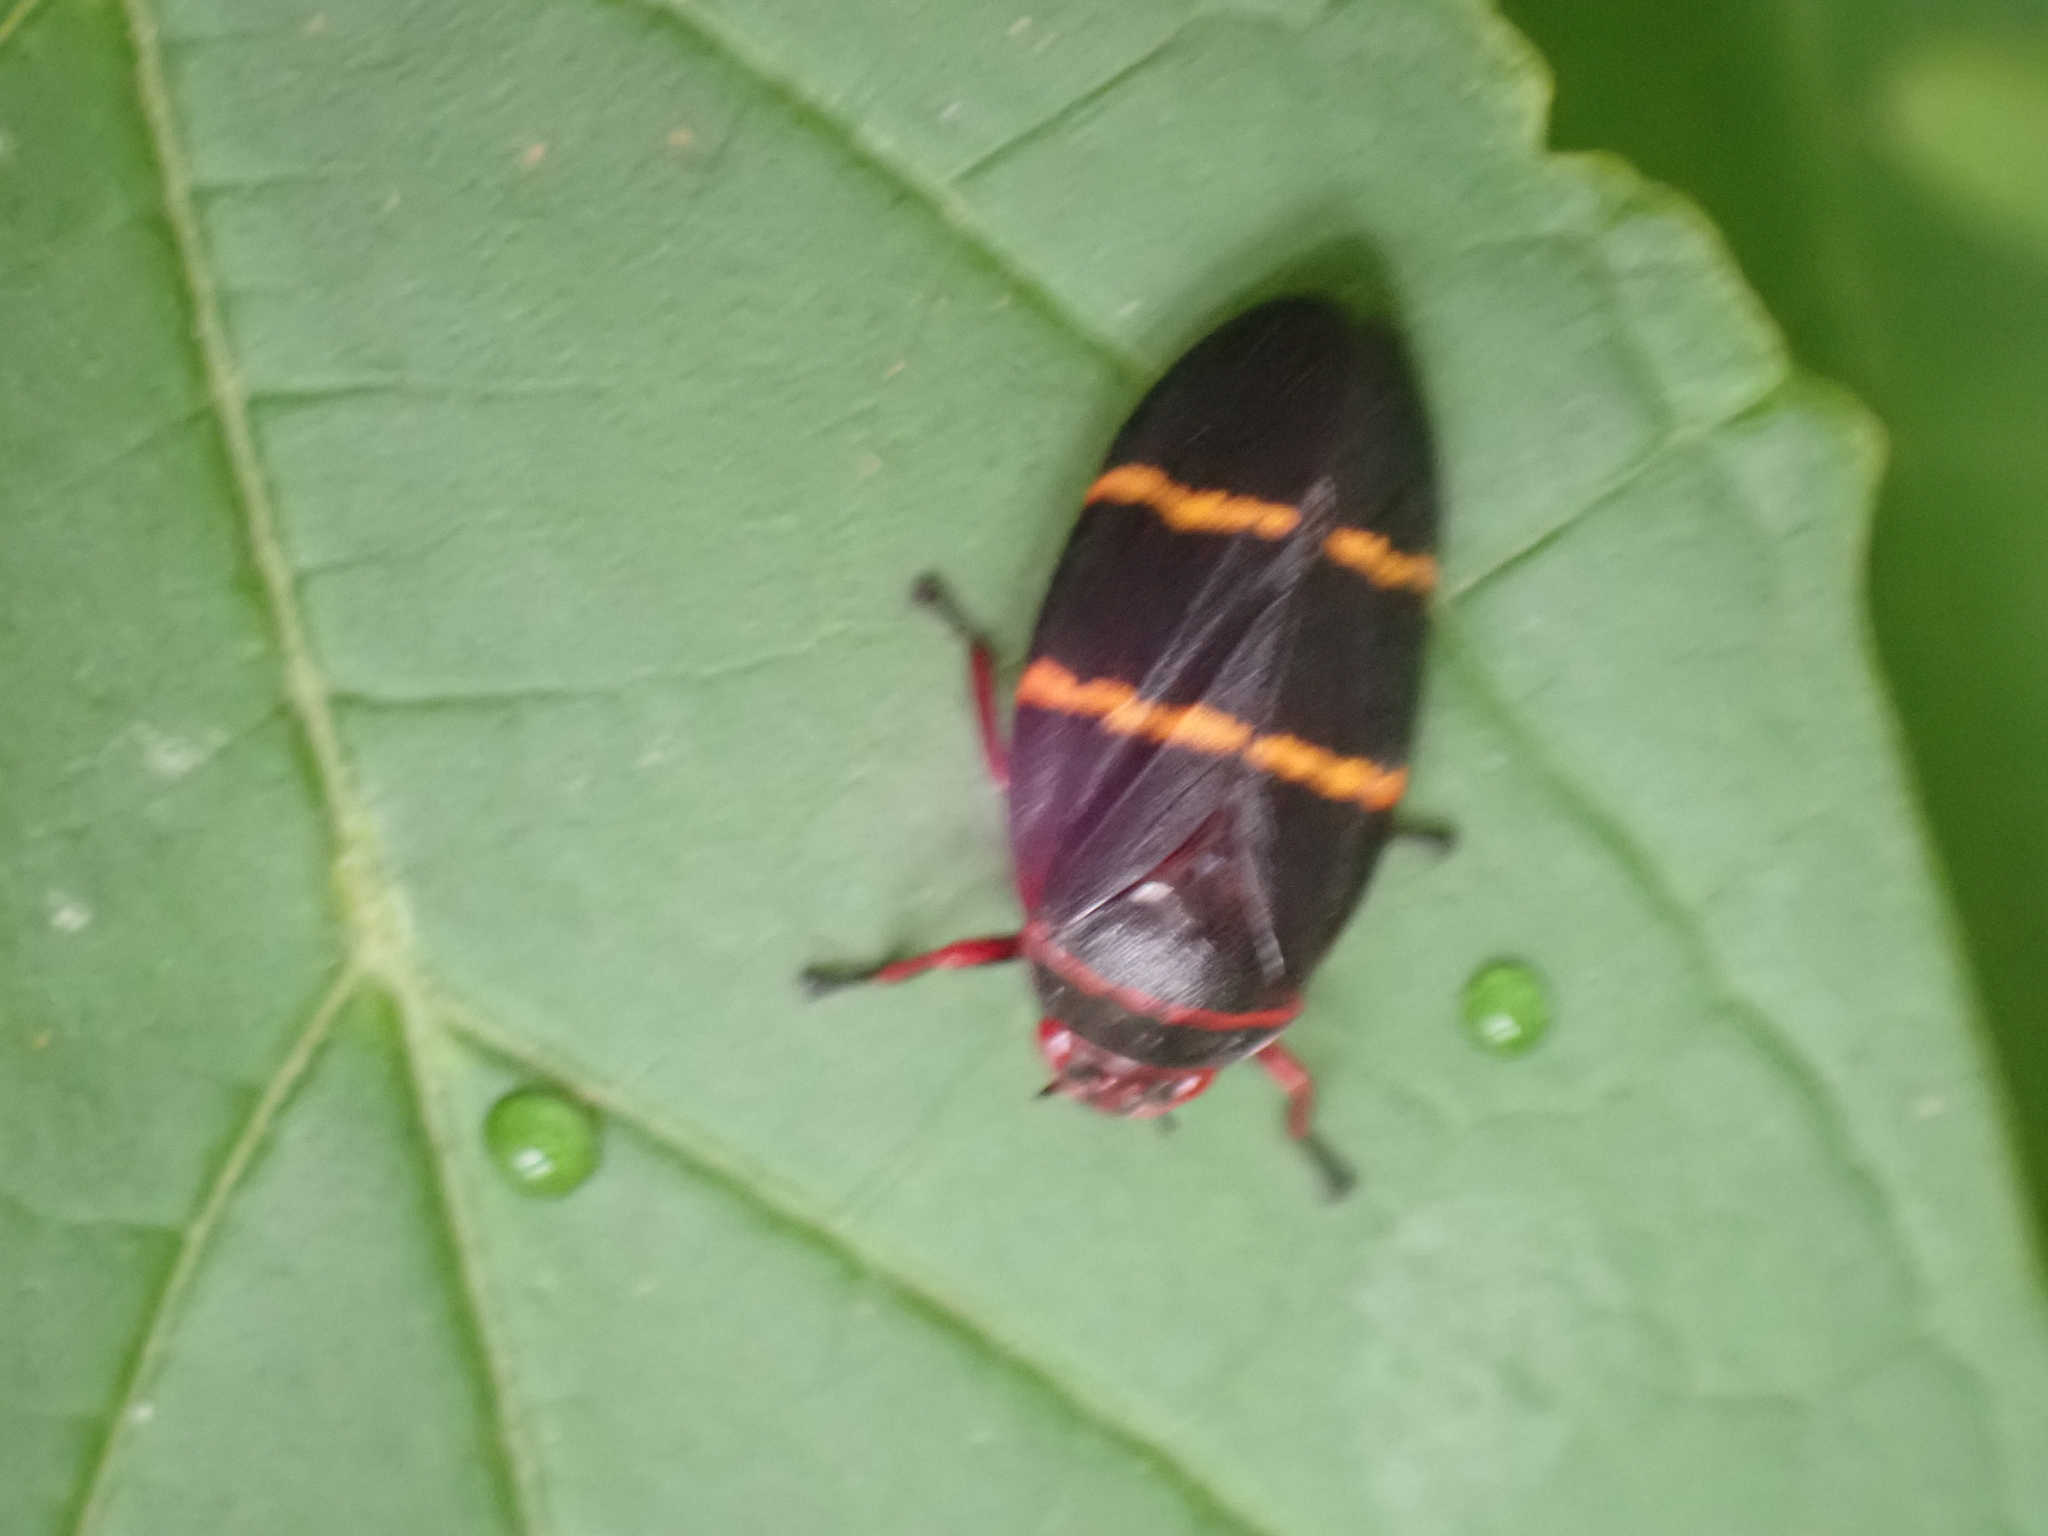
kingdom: Animalia
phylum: Arthropoda
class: Insecta
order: Hemiptera
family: Cercopidae
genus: Prosapia
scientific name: Prosapia bicincta
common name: Twolined spittlebug
